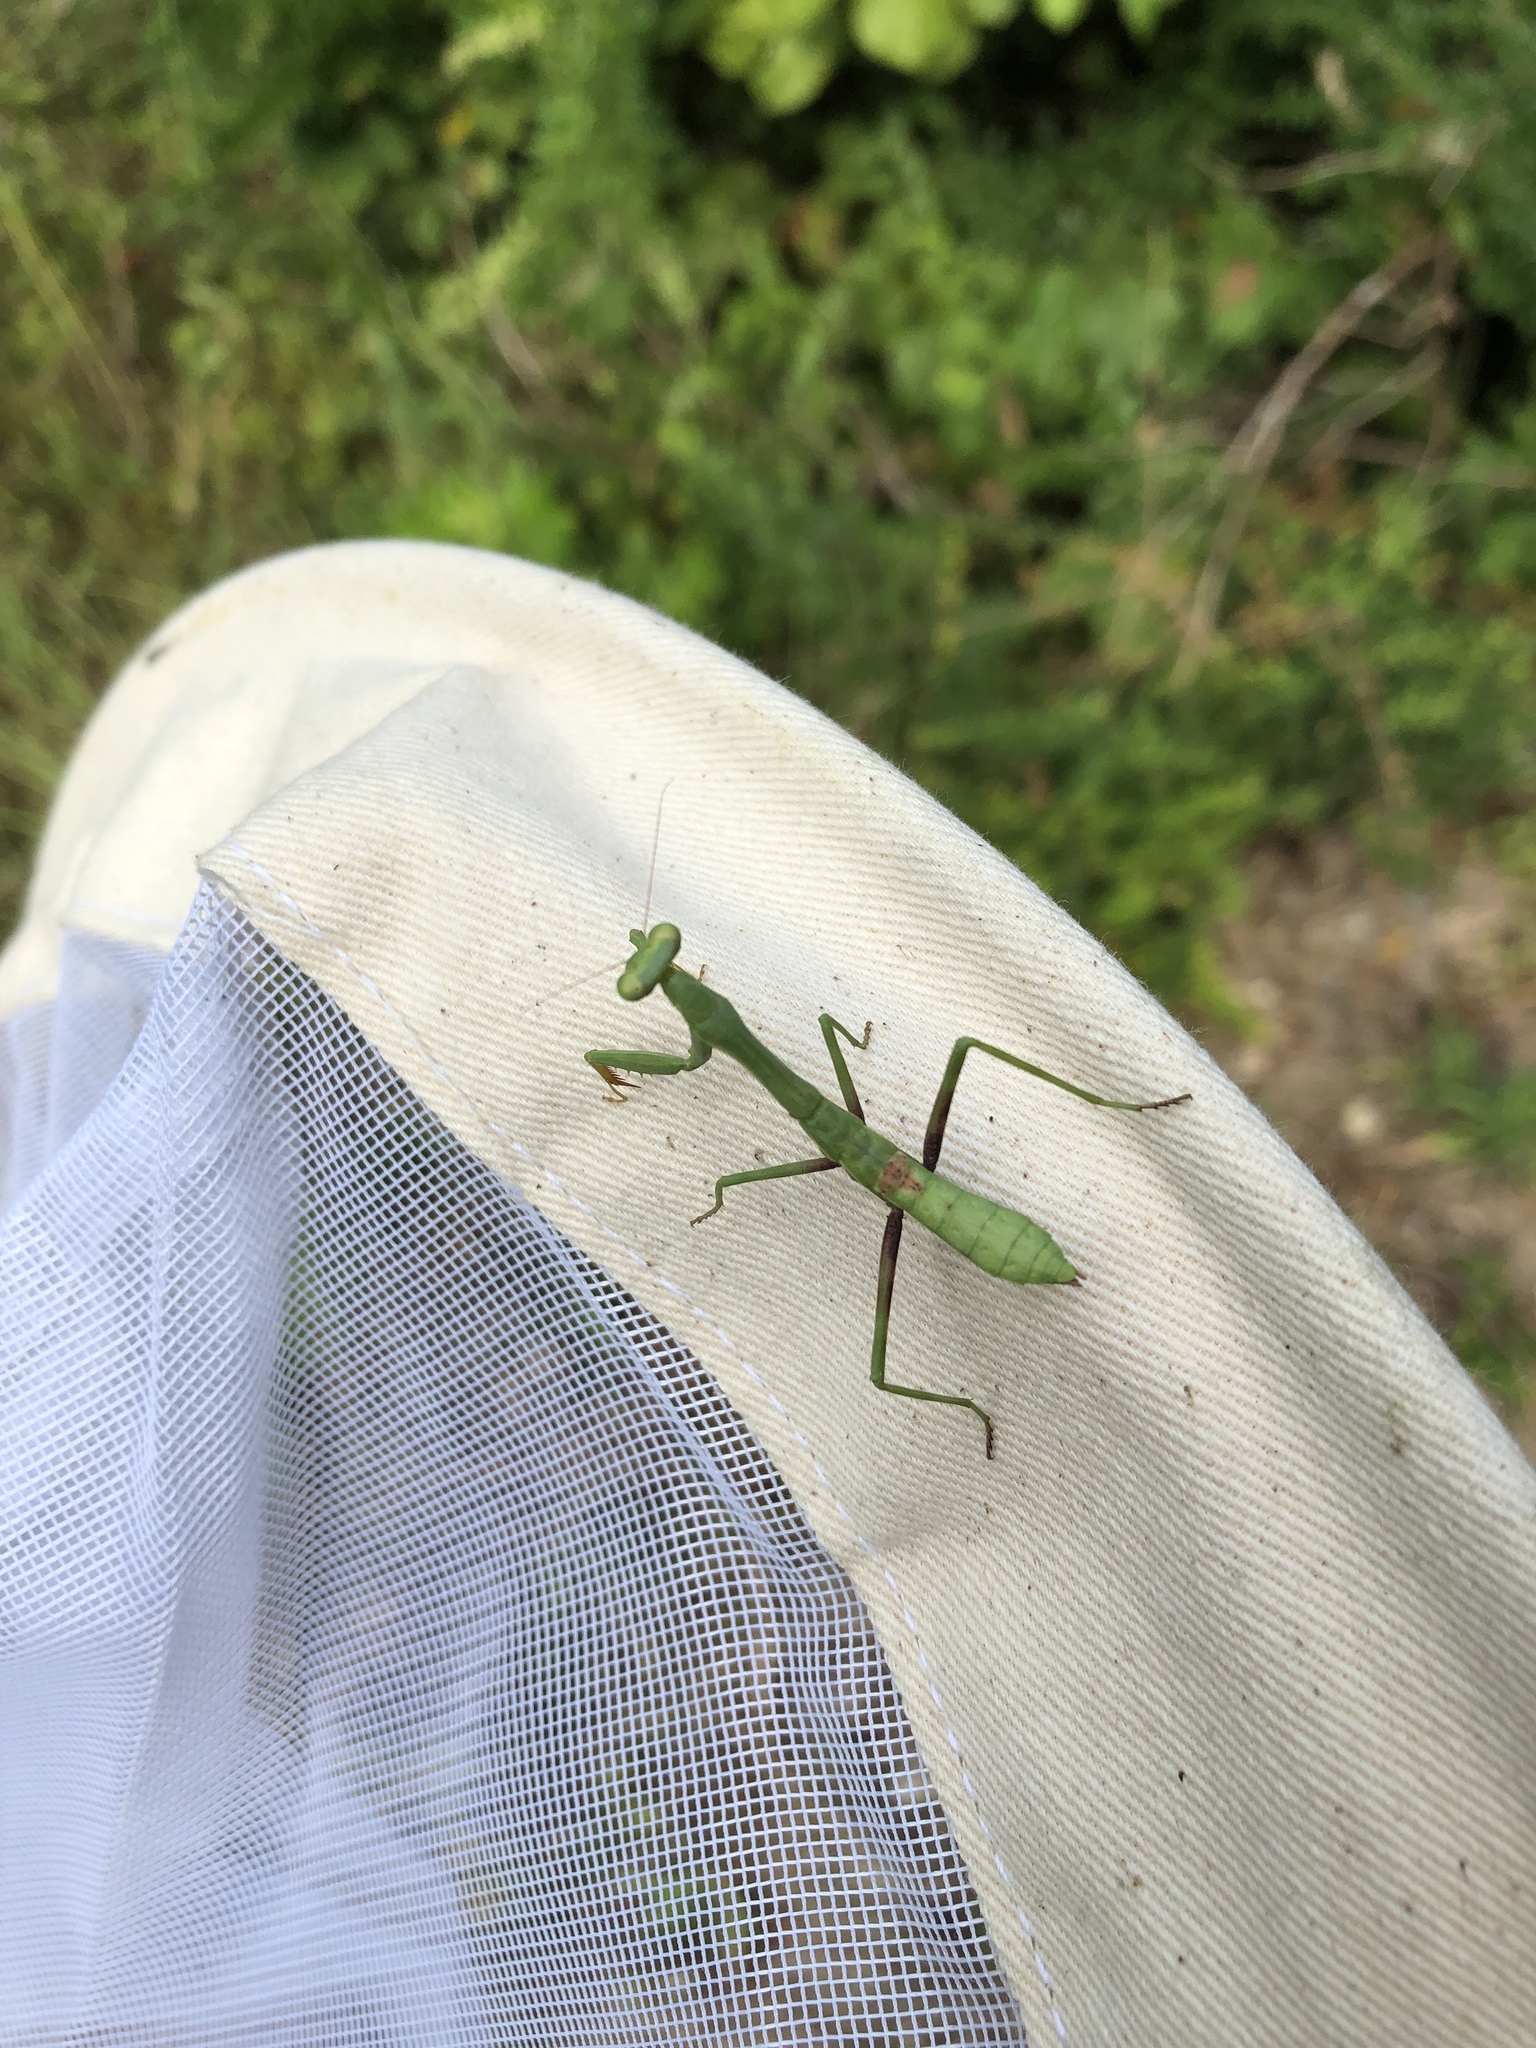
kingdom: Animalia
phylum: Arthropoda
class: Insecta
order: Mantodea
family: Mantidae
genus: Stagmomantis
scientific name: Stagmomantis carolina
